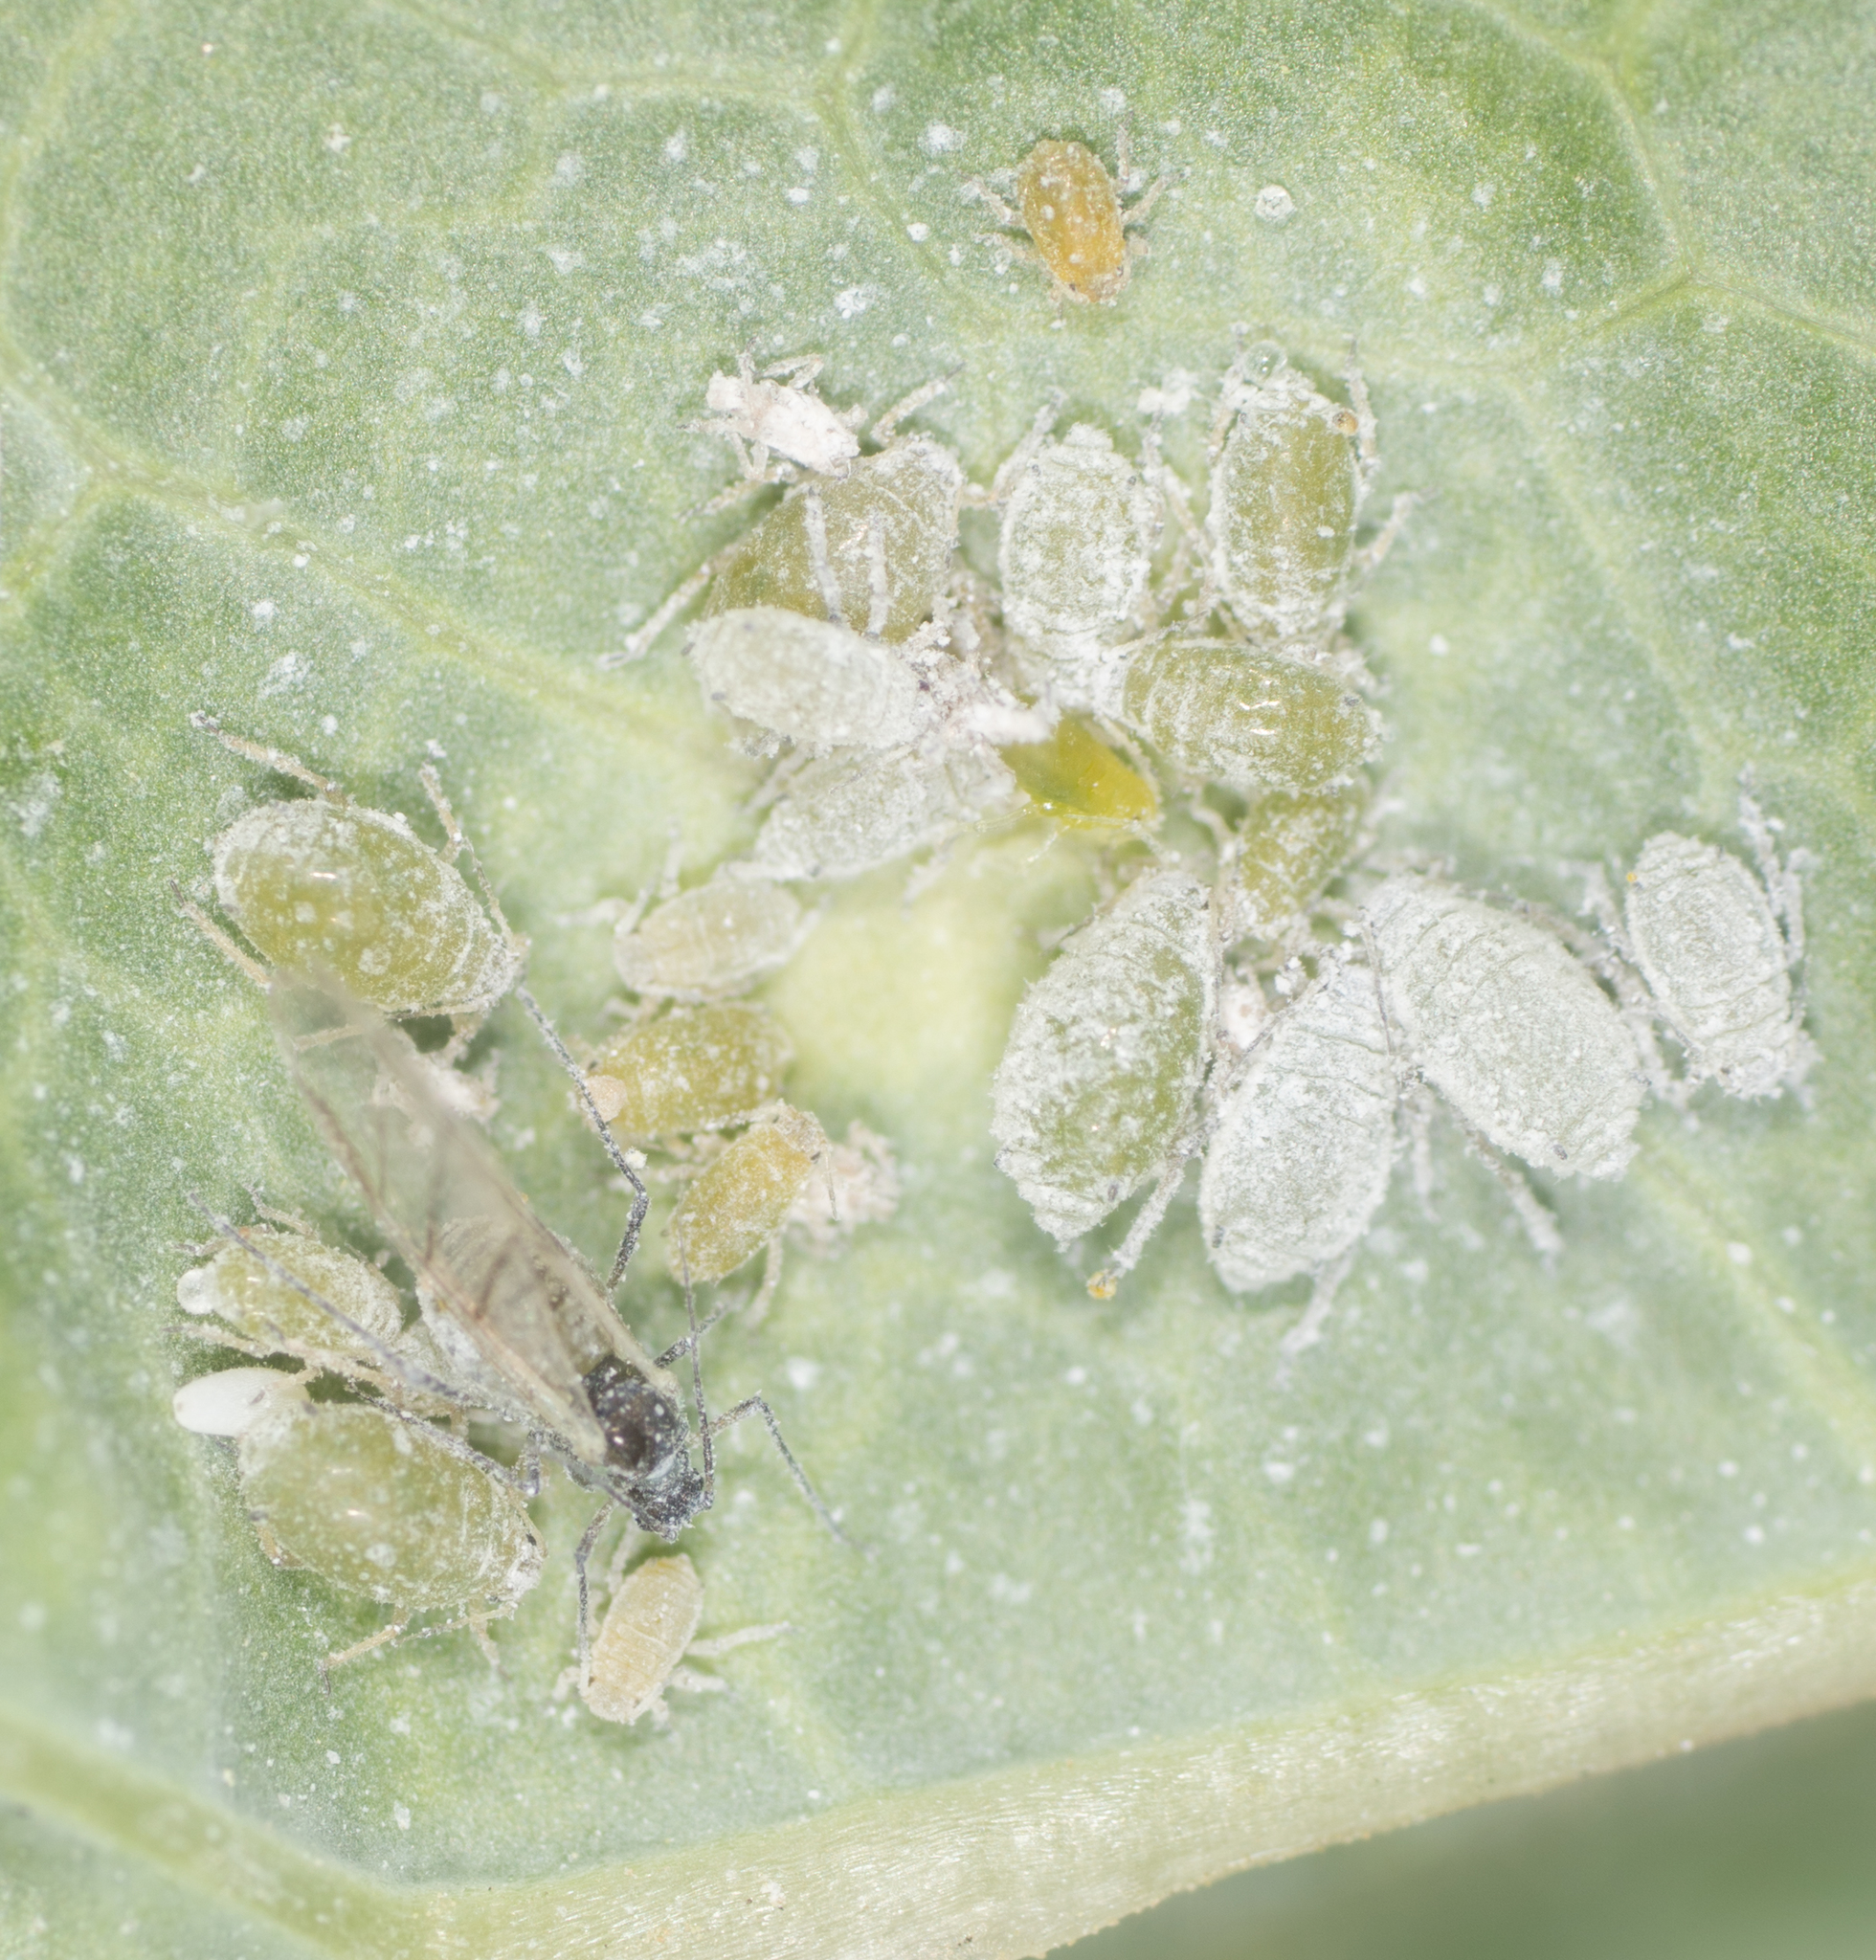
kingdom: Animalia
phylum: Arthropoda
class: Insecta
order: Hemiptera
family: Aphididae
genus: Brevicoryne
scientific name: Brevicoryne brassicae
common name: Cabbage aphid
